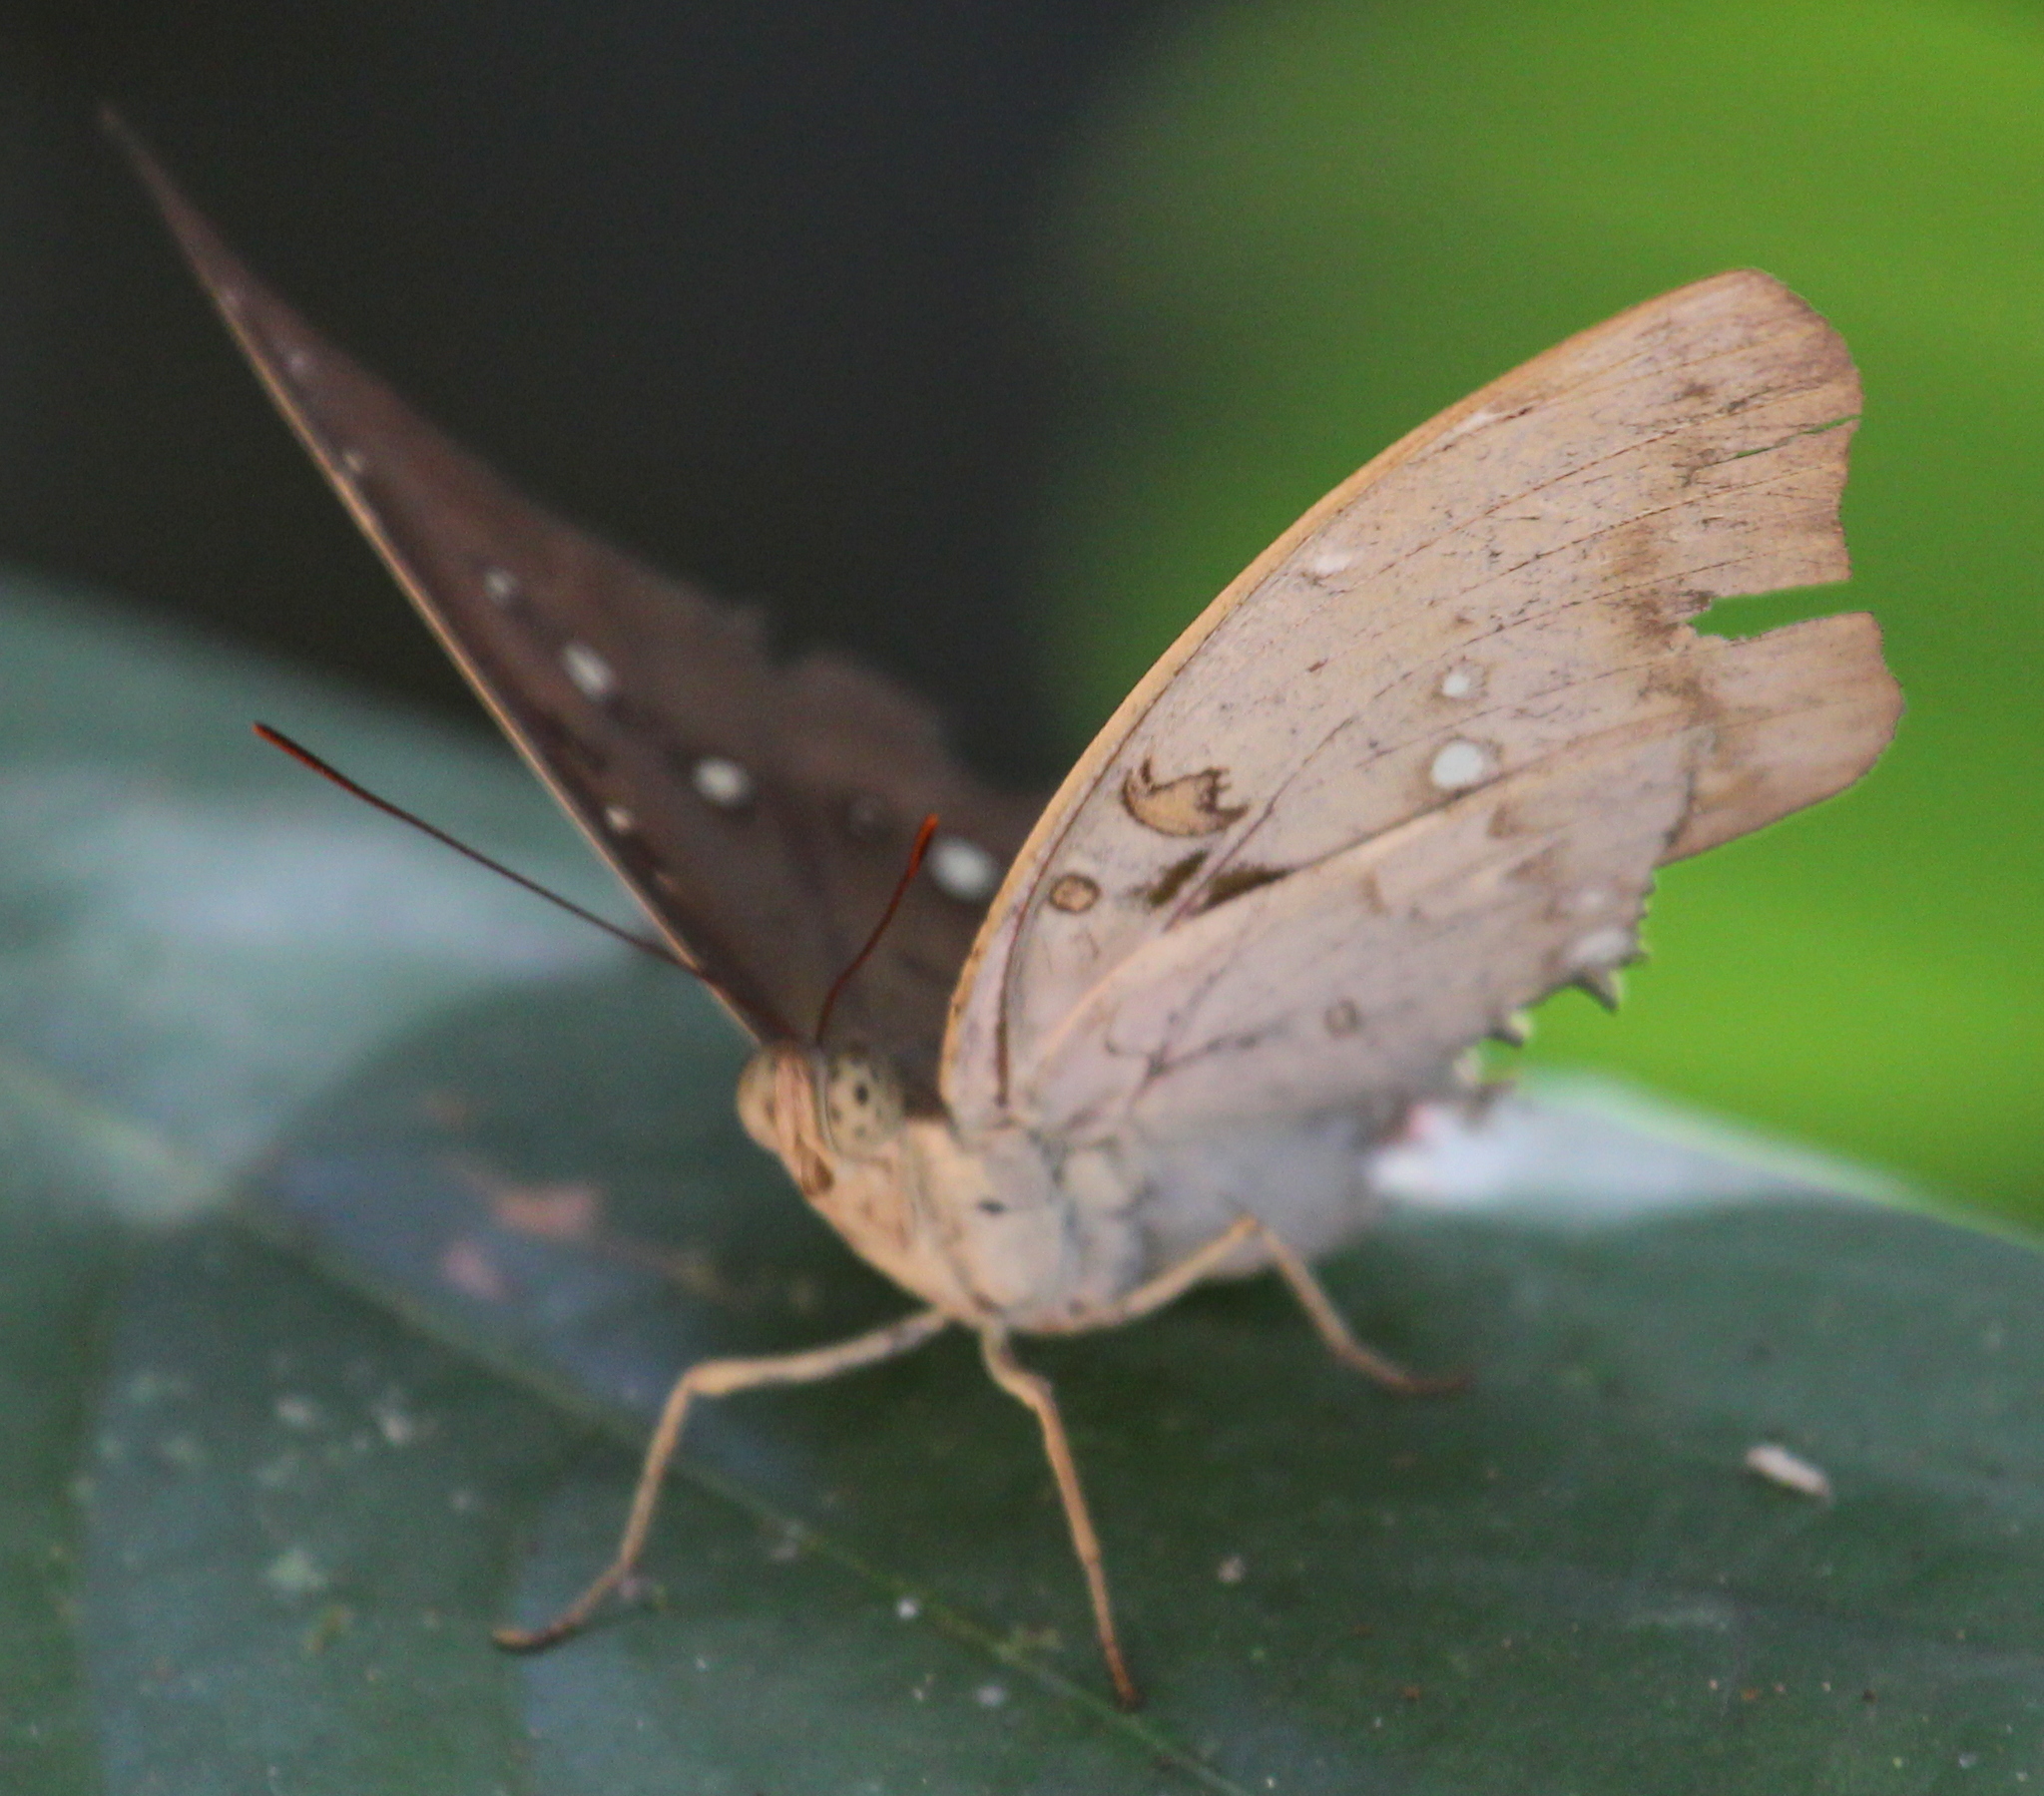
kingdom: Animalia
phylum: Arthropoda
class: Insecta
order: Lepidoptera
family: Nymphalidae
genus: Euthalia
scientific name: Euthalia Bassarona dunya
